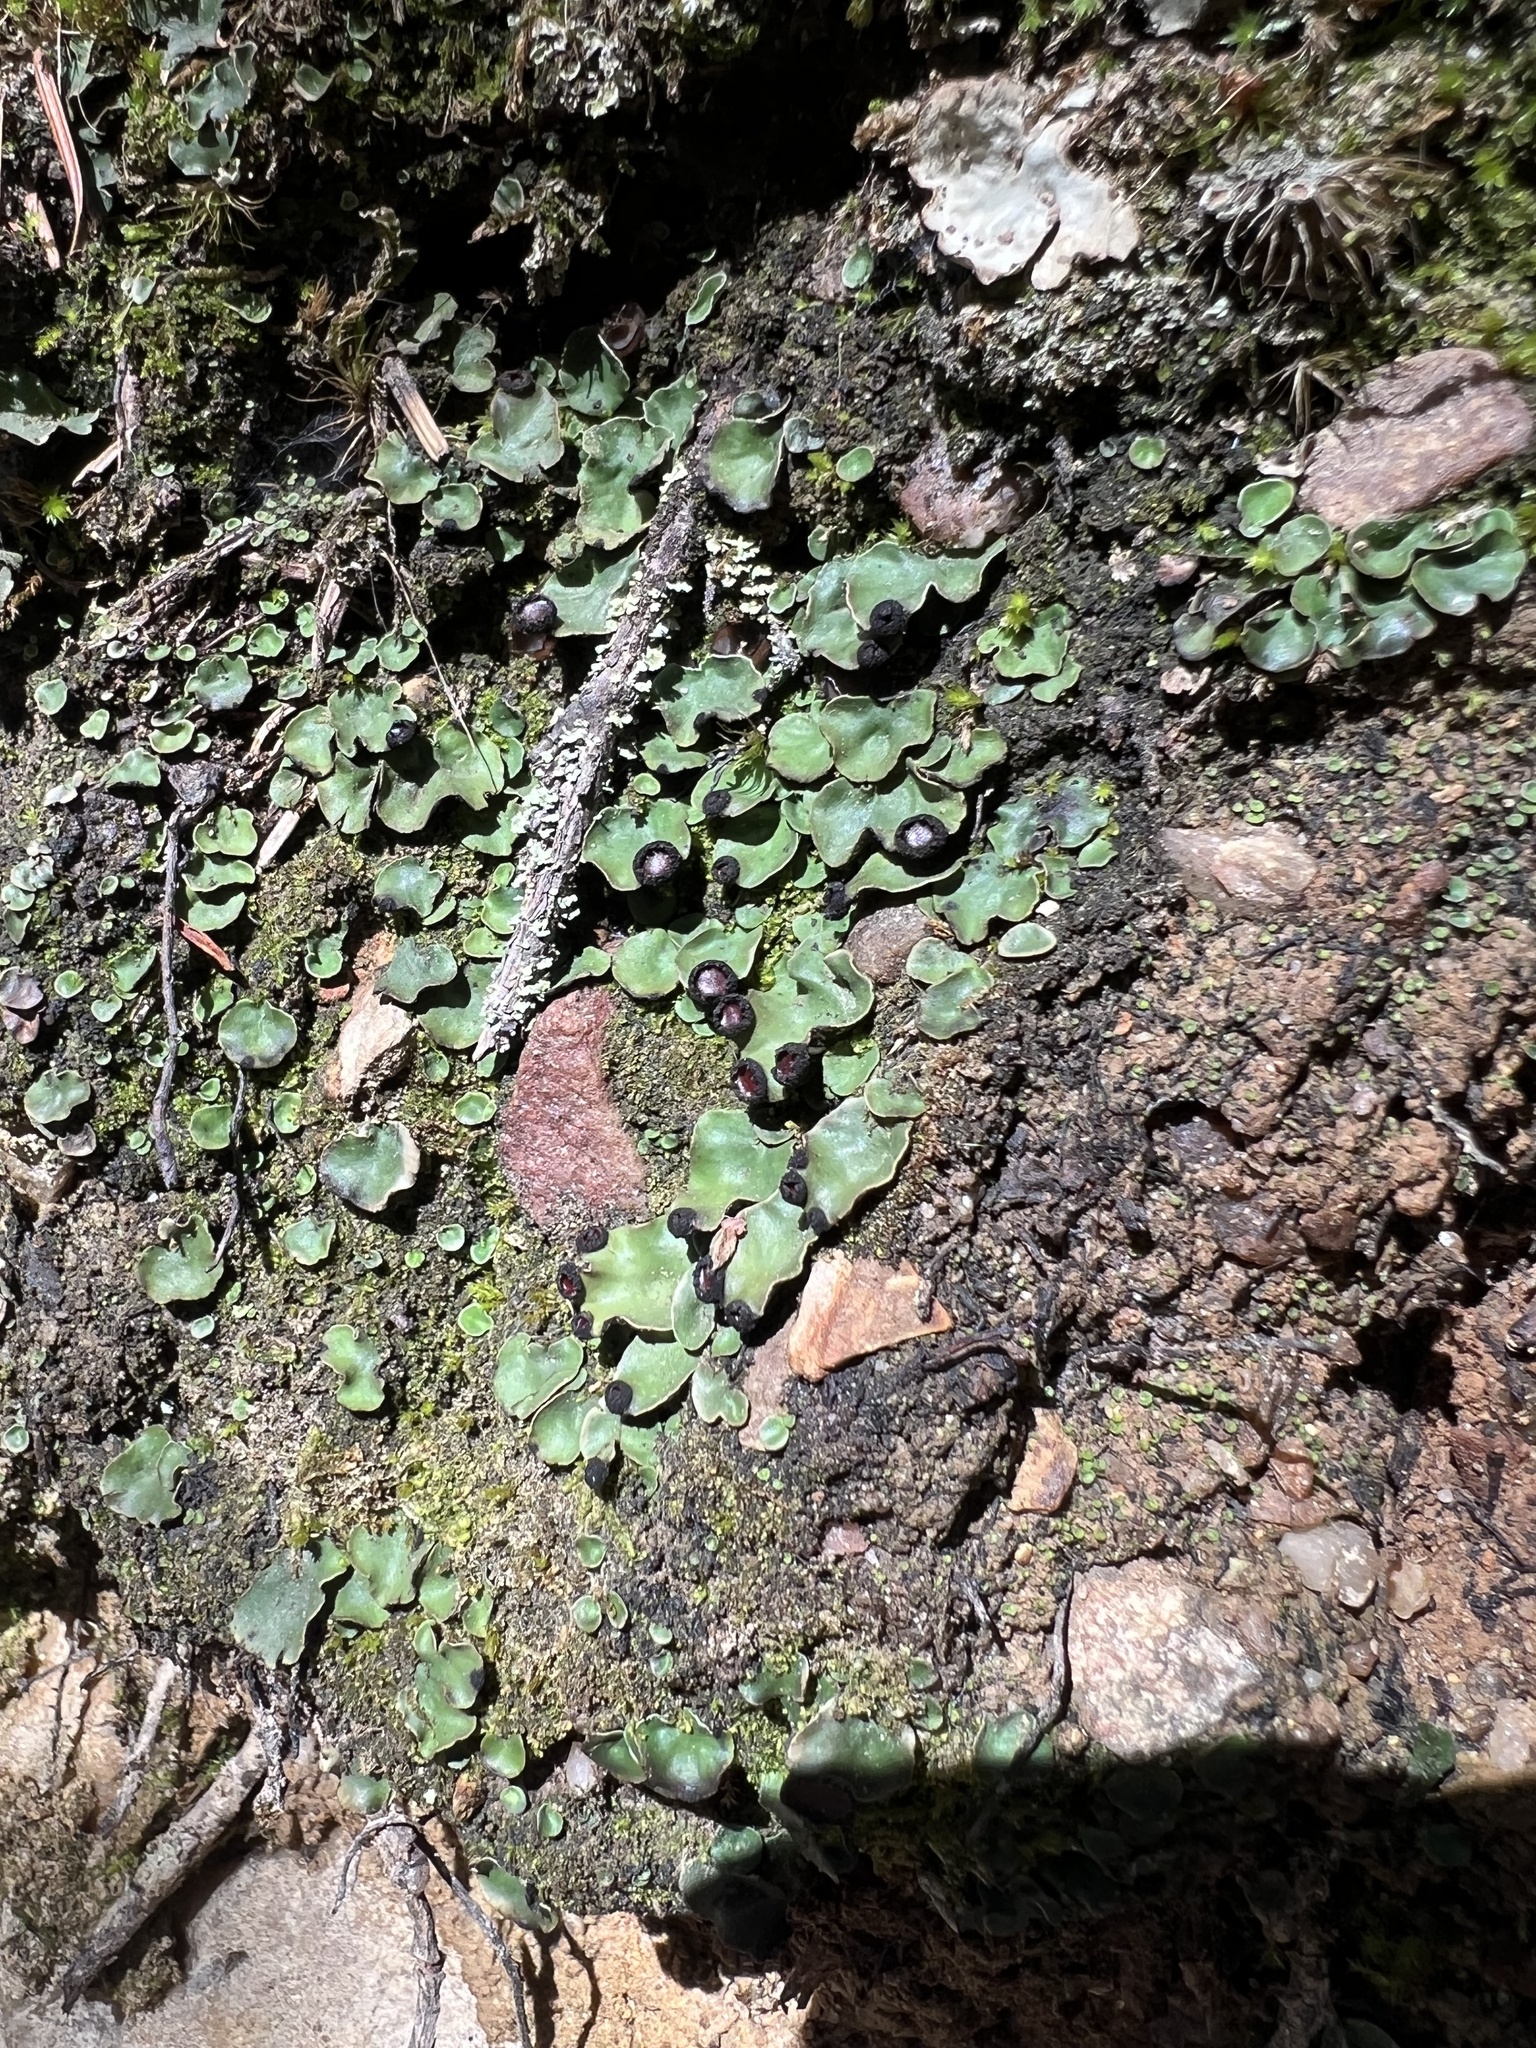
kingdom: Fungi
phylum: Ascomycota
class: Lecanoromycetes
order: Peltigerales
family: Peltigeraceae
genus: Peltigera
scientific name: Peltigera venosa
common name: Pixie gowns lichen
